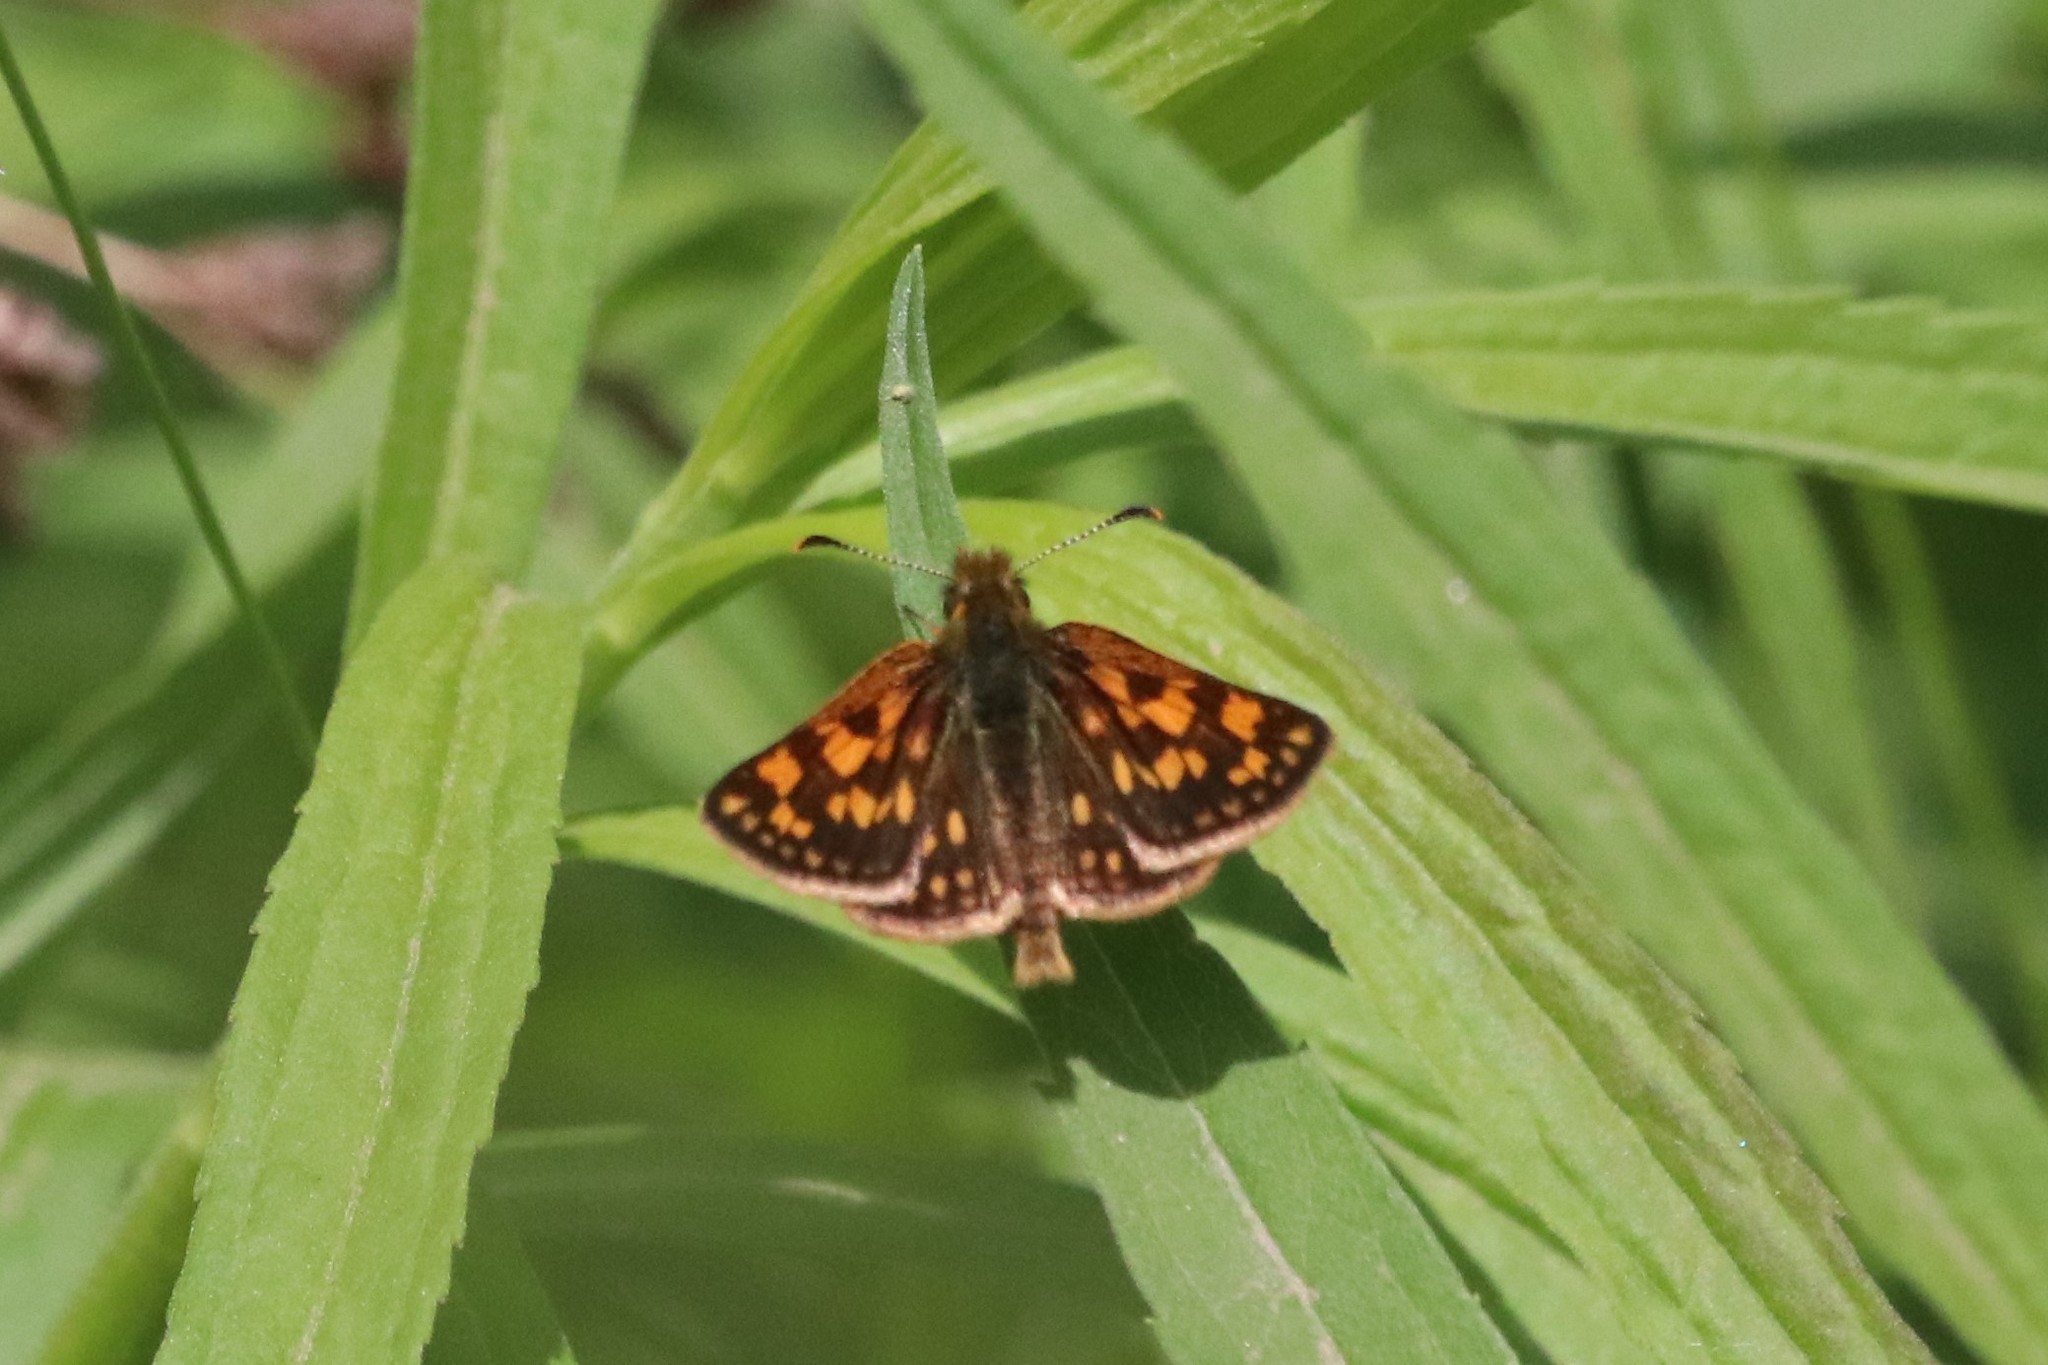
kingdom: Animalia
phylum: Arthropoda
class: Insecta
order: Lepidoptera
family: Hesperiidae
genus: Carterocephalus
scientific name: Carterocephalus mandan
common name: Arctic skipperling
